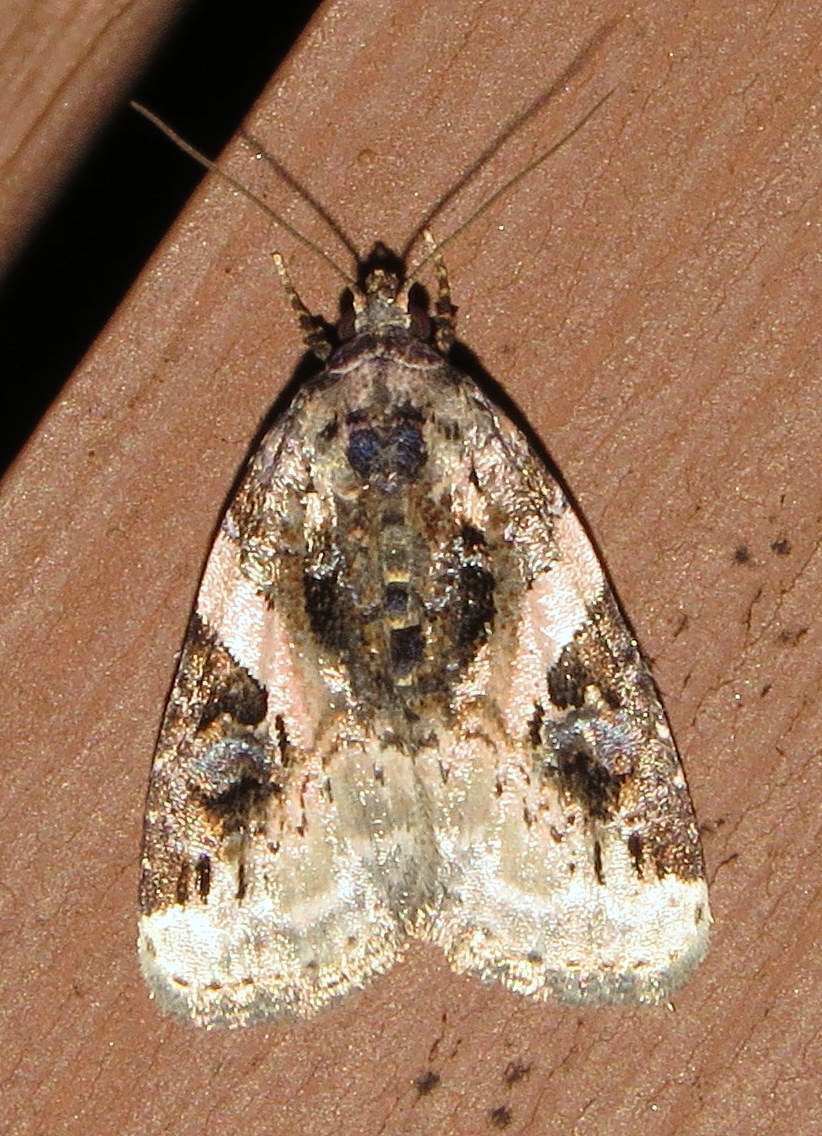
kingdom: Animalia
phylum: Arthropoda
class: Insecta
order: Lepidoptera
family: Noctuidae
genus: Pseudeustrotia
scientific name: Pseudeustrotia carneola
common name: Pink-barred lithacodia moth
